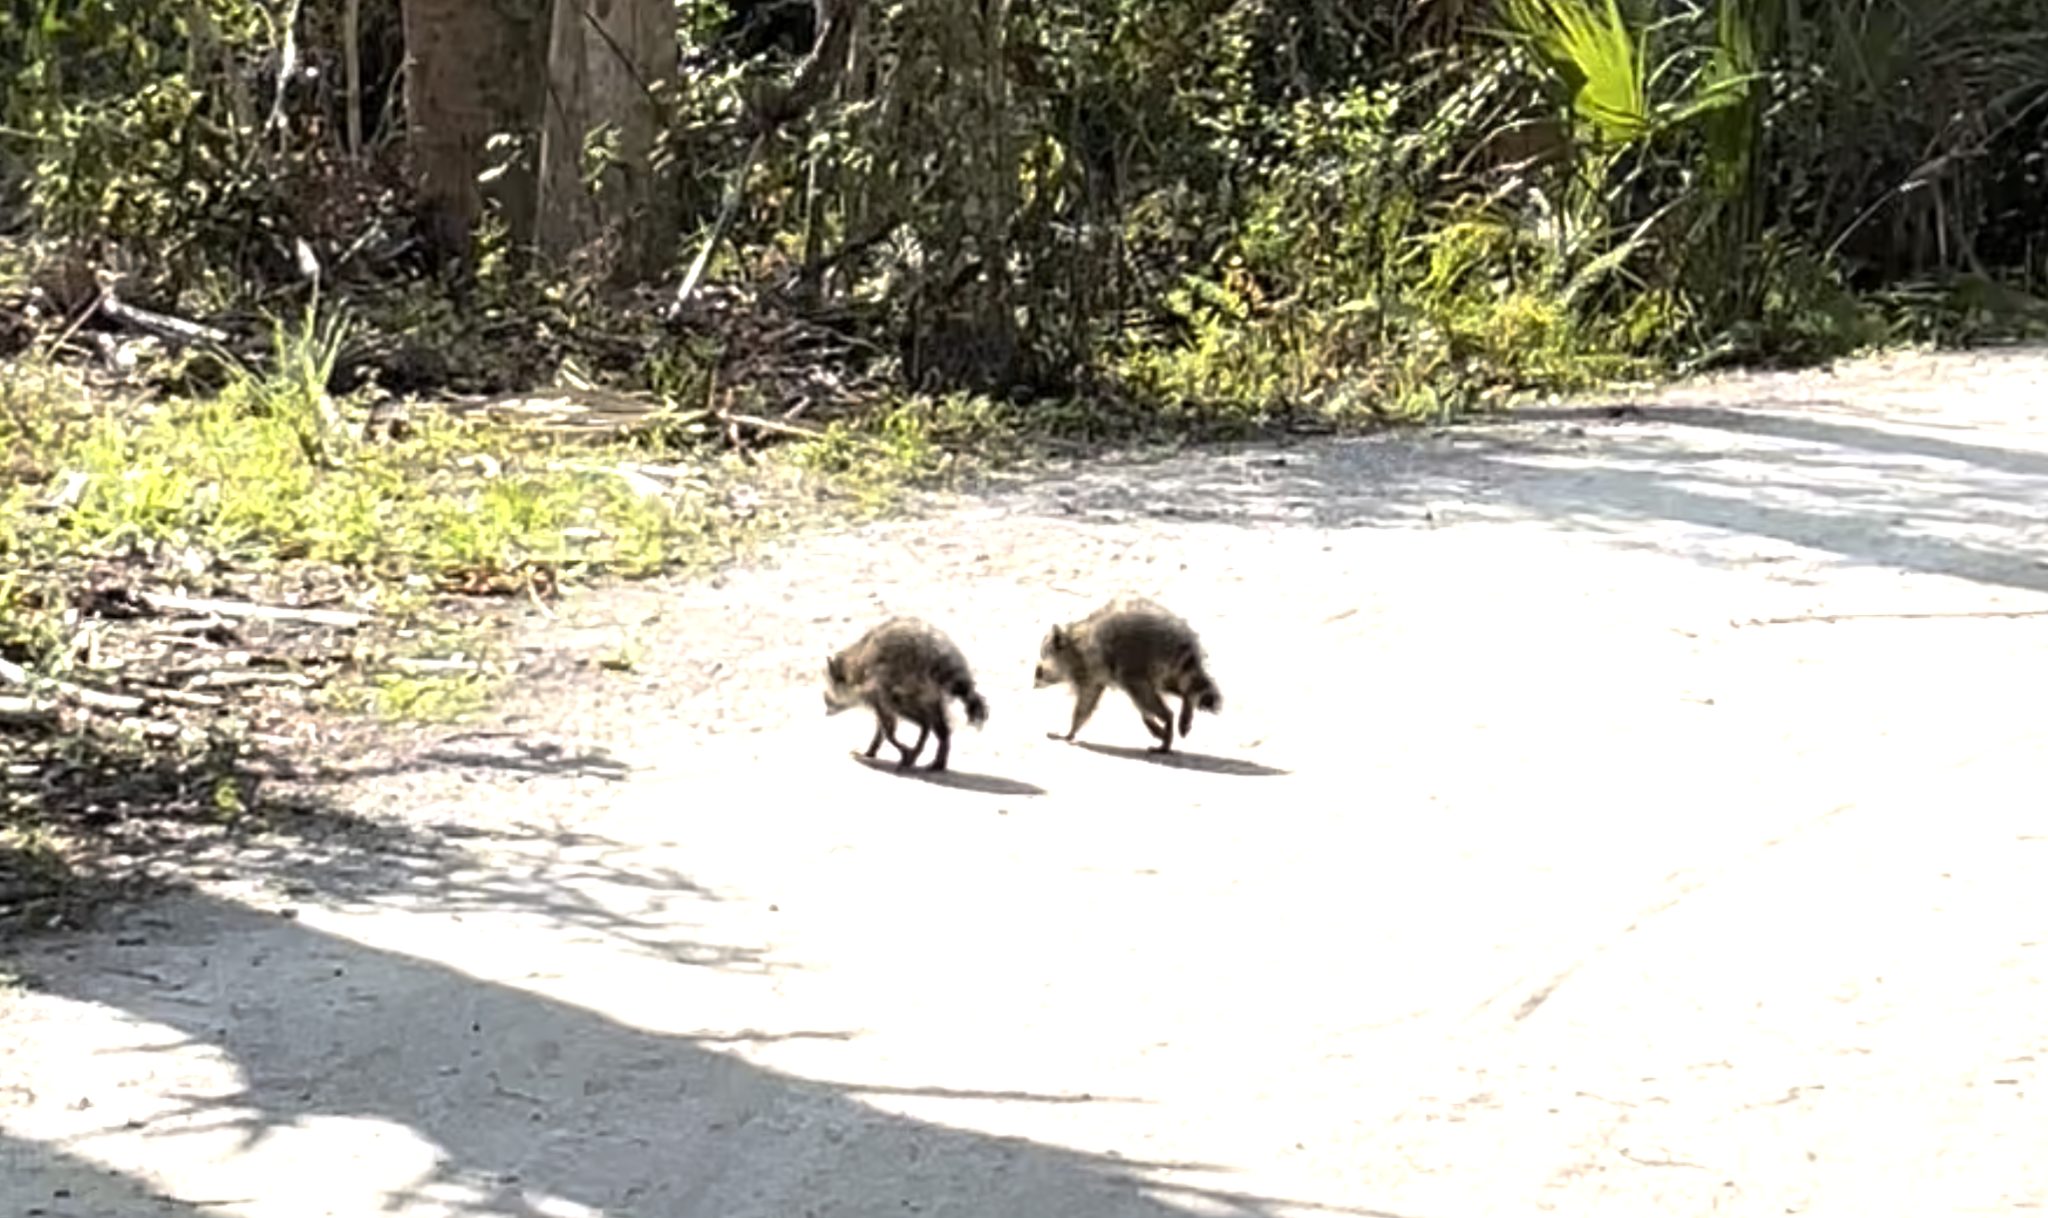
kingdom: Animalia
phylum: Chordata
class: Mammalia
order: Carnivora
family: Procyonidae
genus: Procyon
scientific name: Procyon lotor
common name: Raccoon
